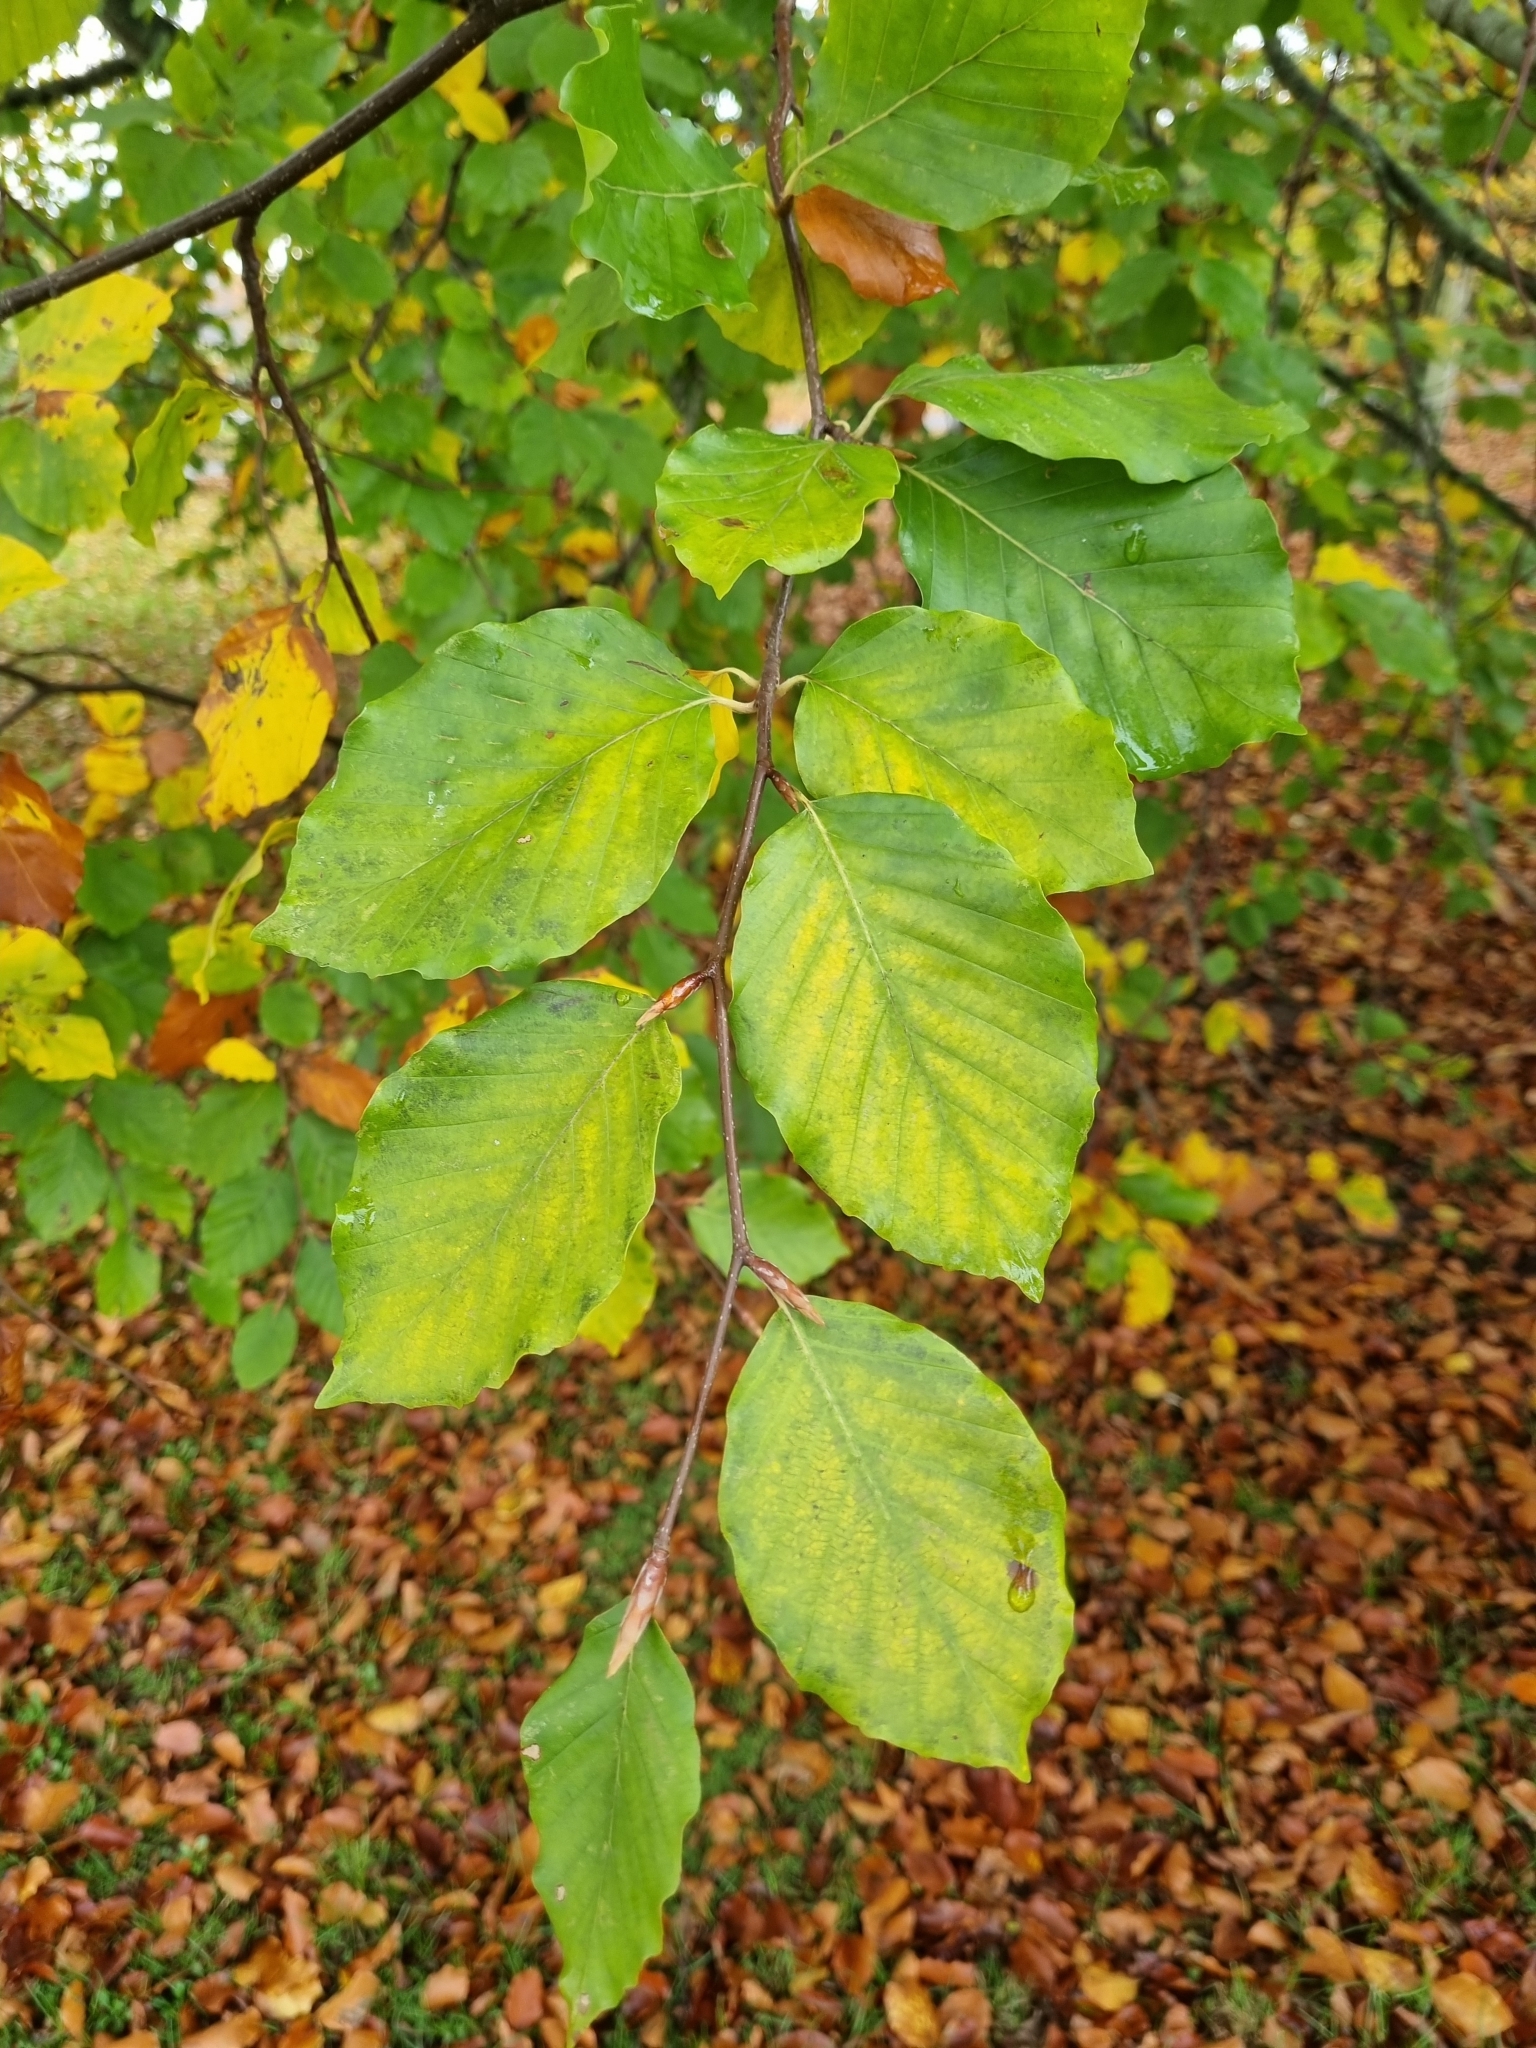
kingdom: Plantae
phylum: Tracheophyta
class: Magnoliopsida
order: Fagales
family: Fagaceae
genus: Fagus
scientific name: Fagus sylvatica
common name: Beech
